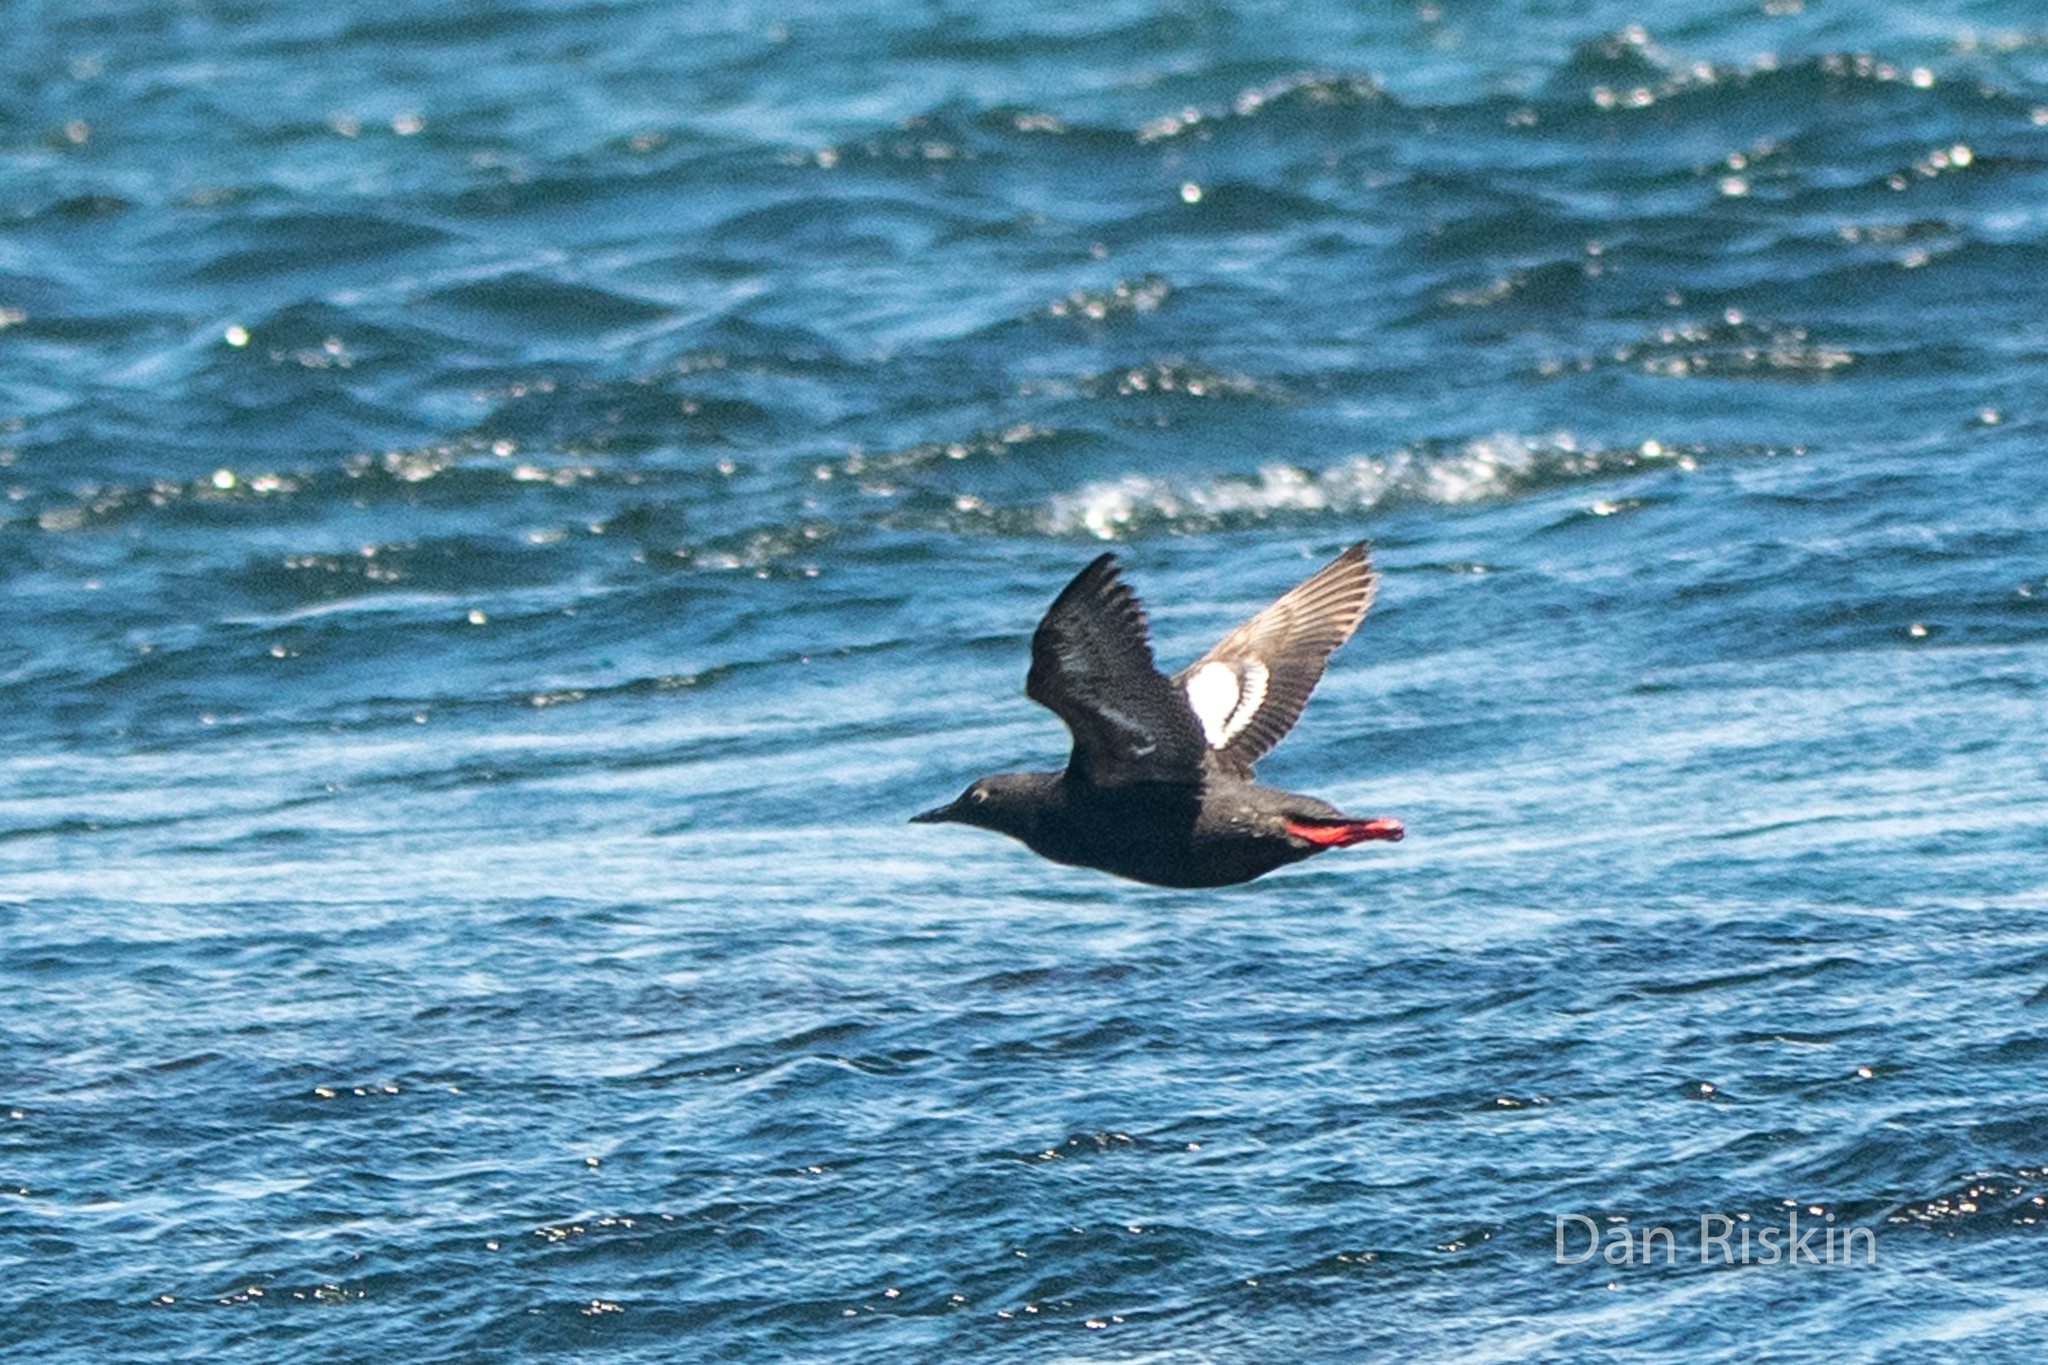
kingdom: Animalia
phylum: Chordata
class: Aves
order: Charadriiformes
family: Alcidae
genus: Cepphus
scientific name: Cepphus columba
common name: Pigeon guillemot
